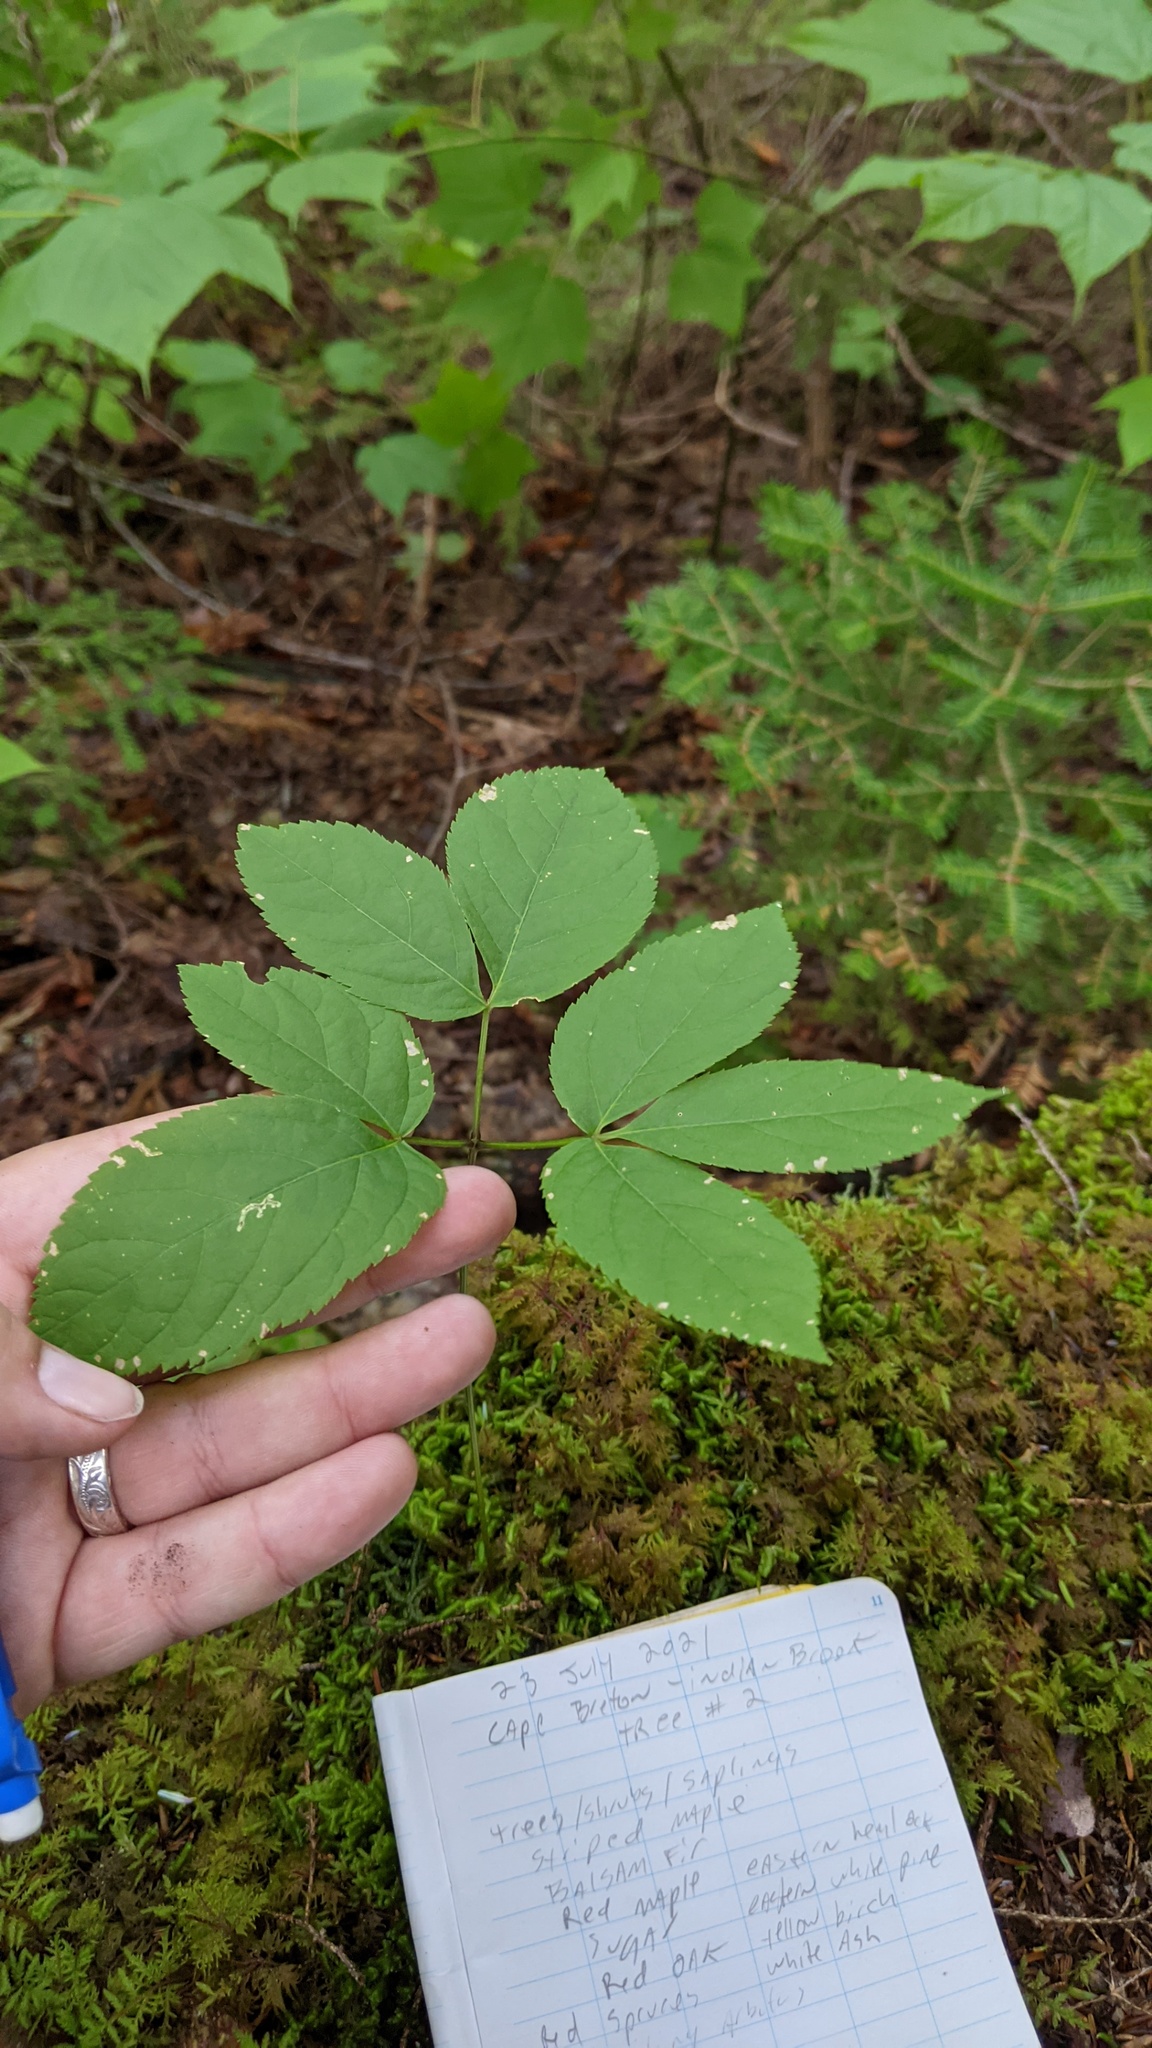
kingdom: Animalia
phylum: Arthropoda
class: Insecta
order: Diptera
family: Agromyzidae
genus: Phytomyza
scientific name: Phytomyza aralivora
